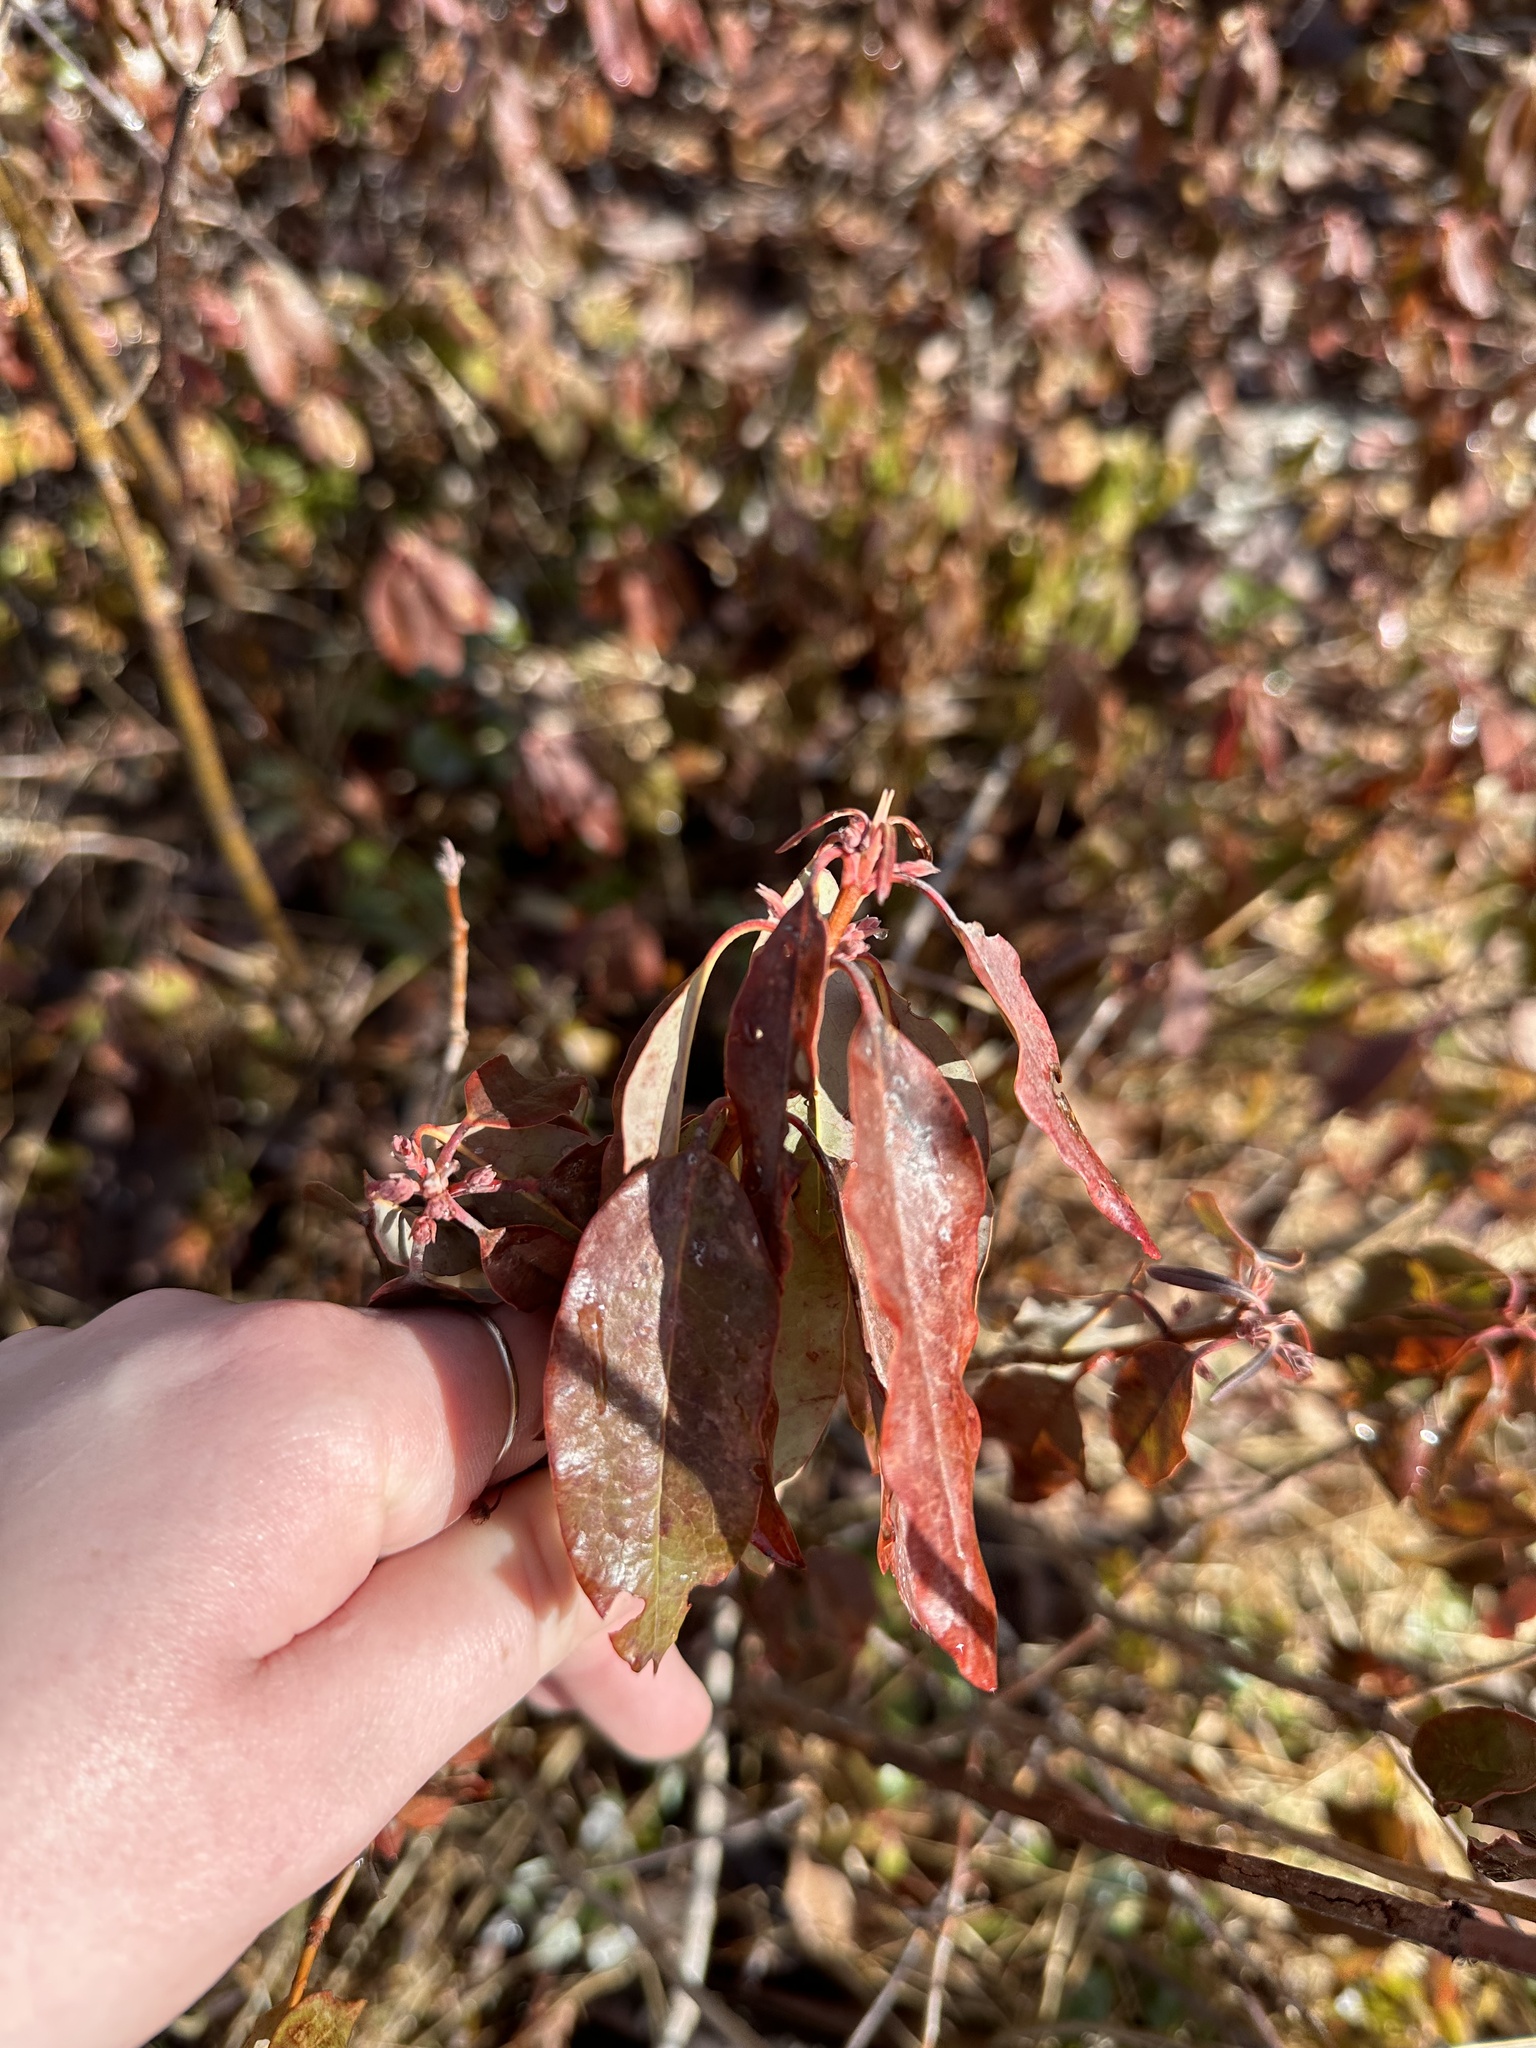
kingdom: Plantae
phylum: Tracheophyta
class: Magnoliopsida
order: Ericales
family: Ericaceae
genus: Kalmia
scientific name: Kalmia angustifolia
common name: Sheep-laurel
